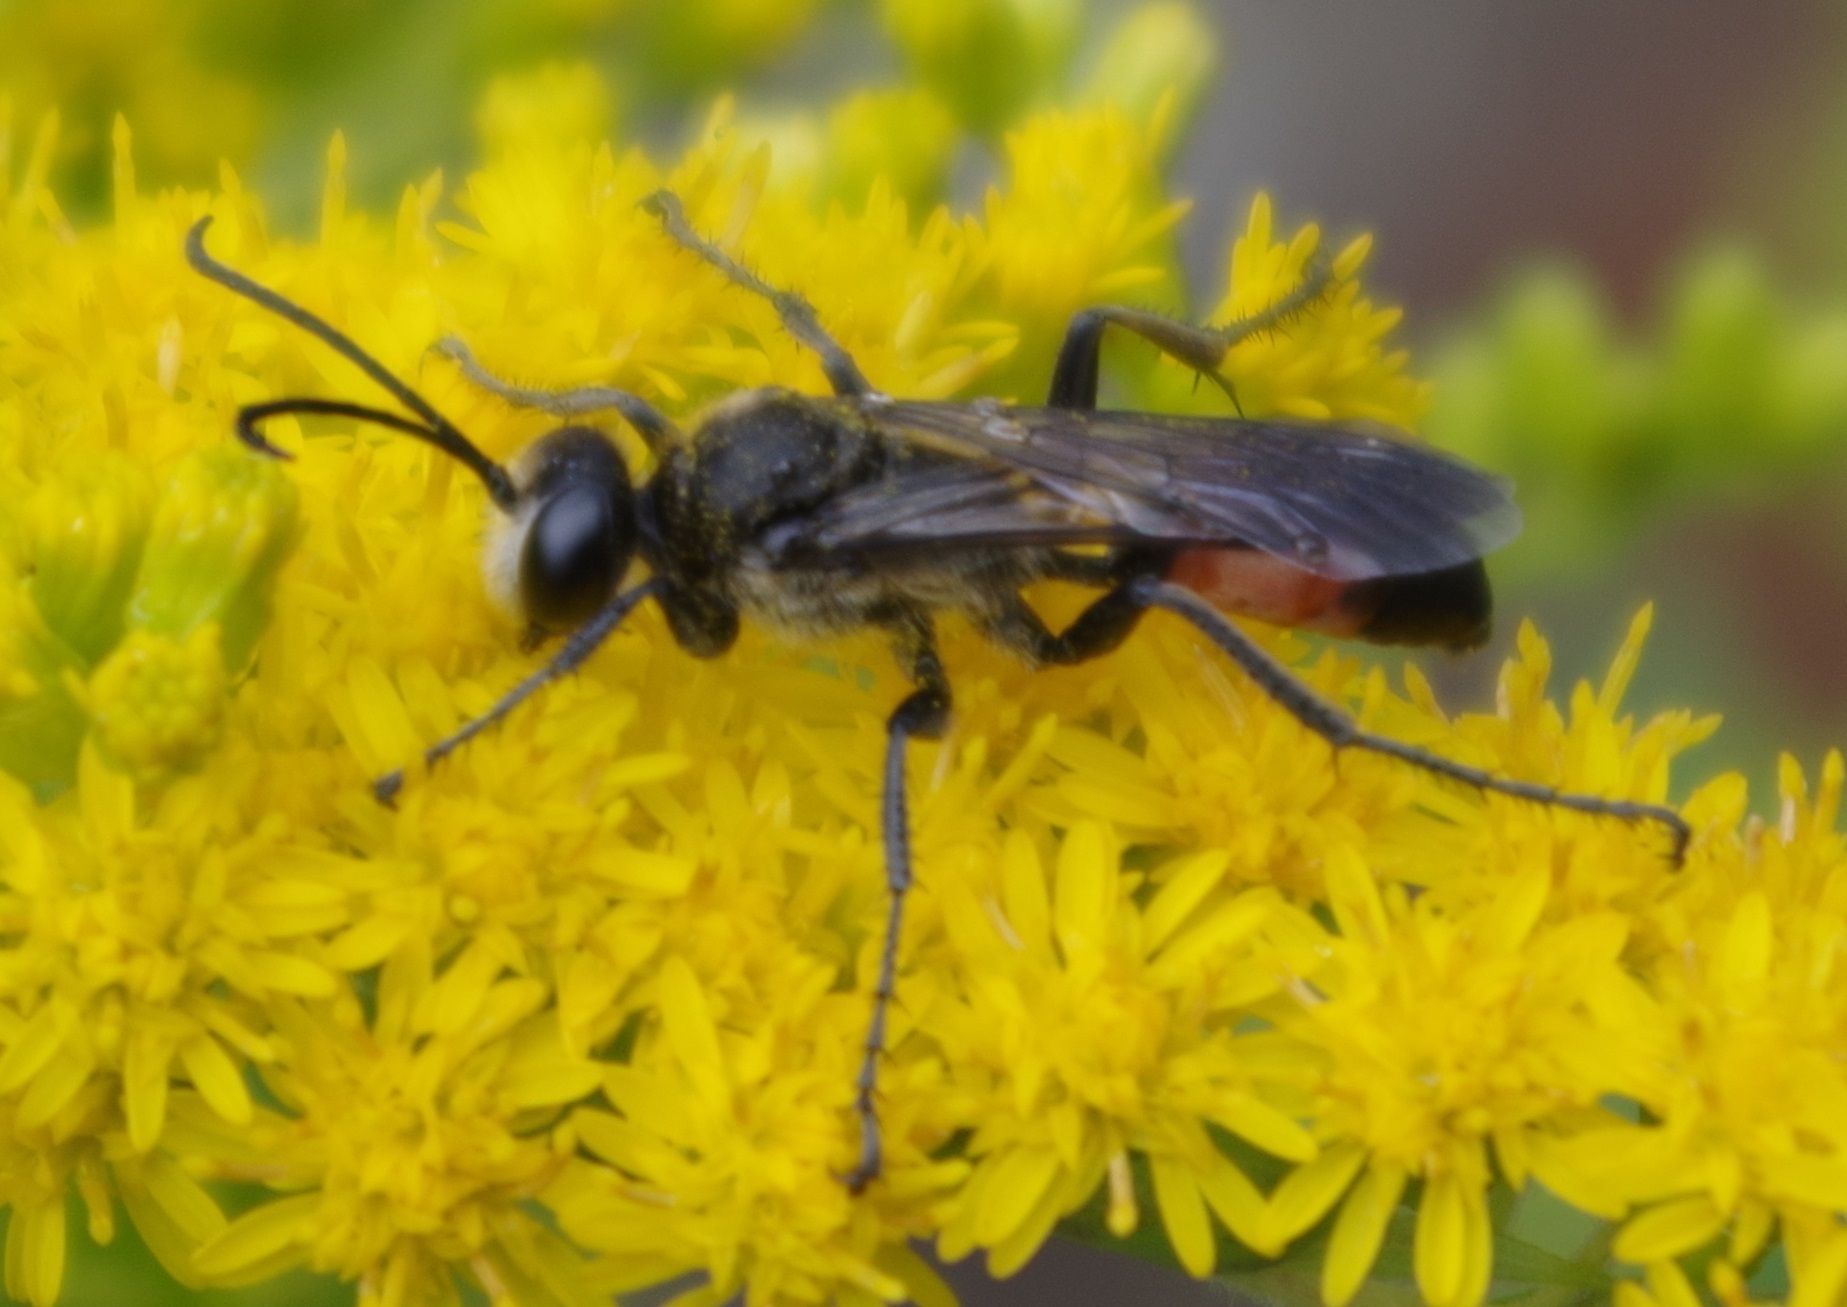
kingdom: Animalia
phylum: Arthropoda
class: Insecta
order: Hymenoptera
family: Sphecidae
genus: Sphex
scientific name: Sphex funerarius
